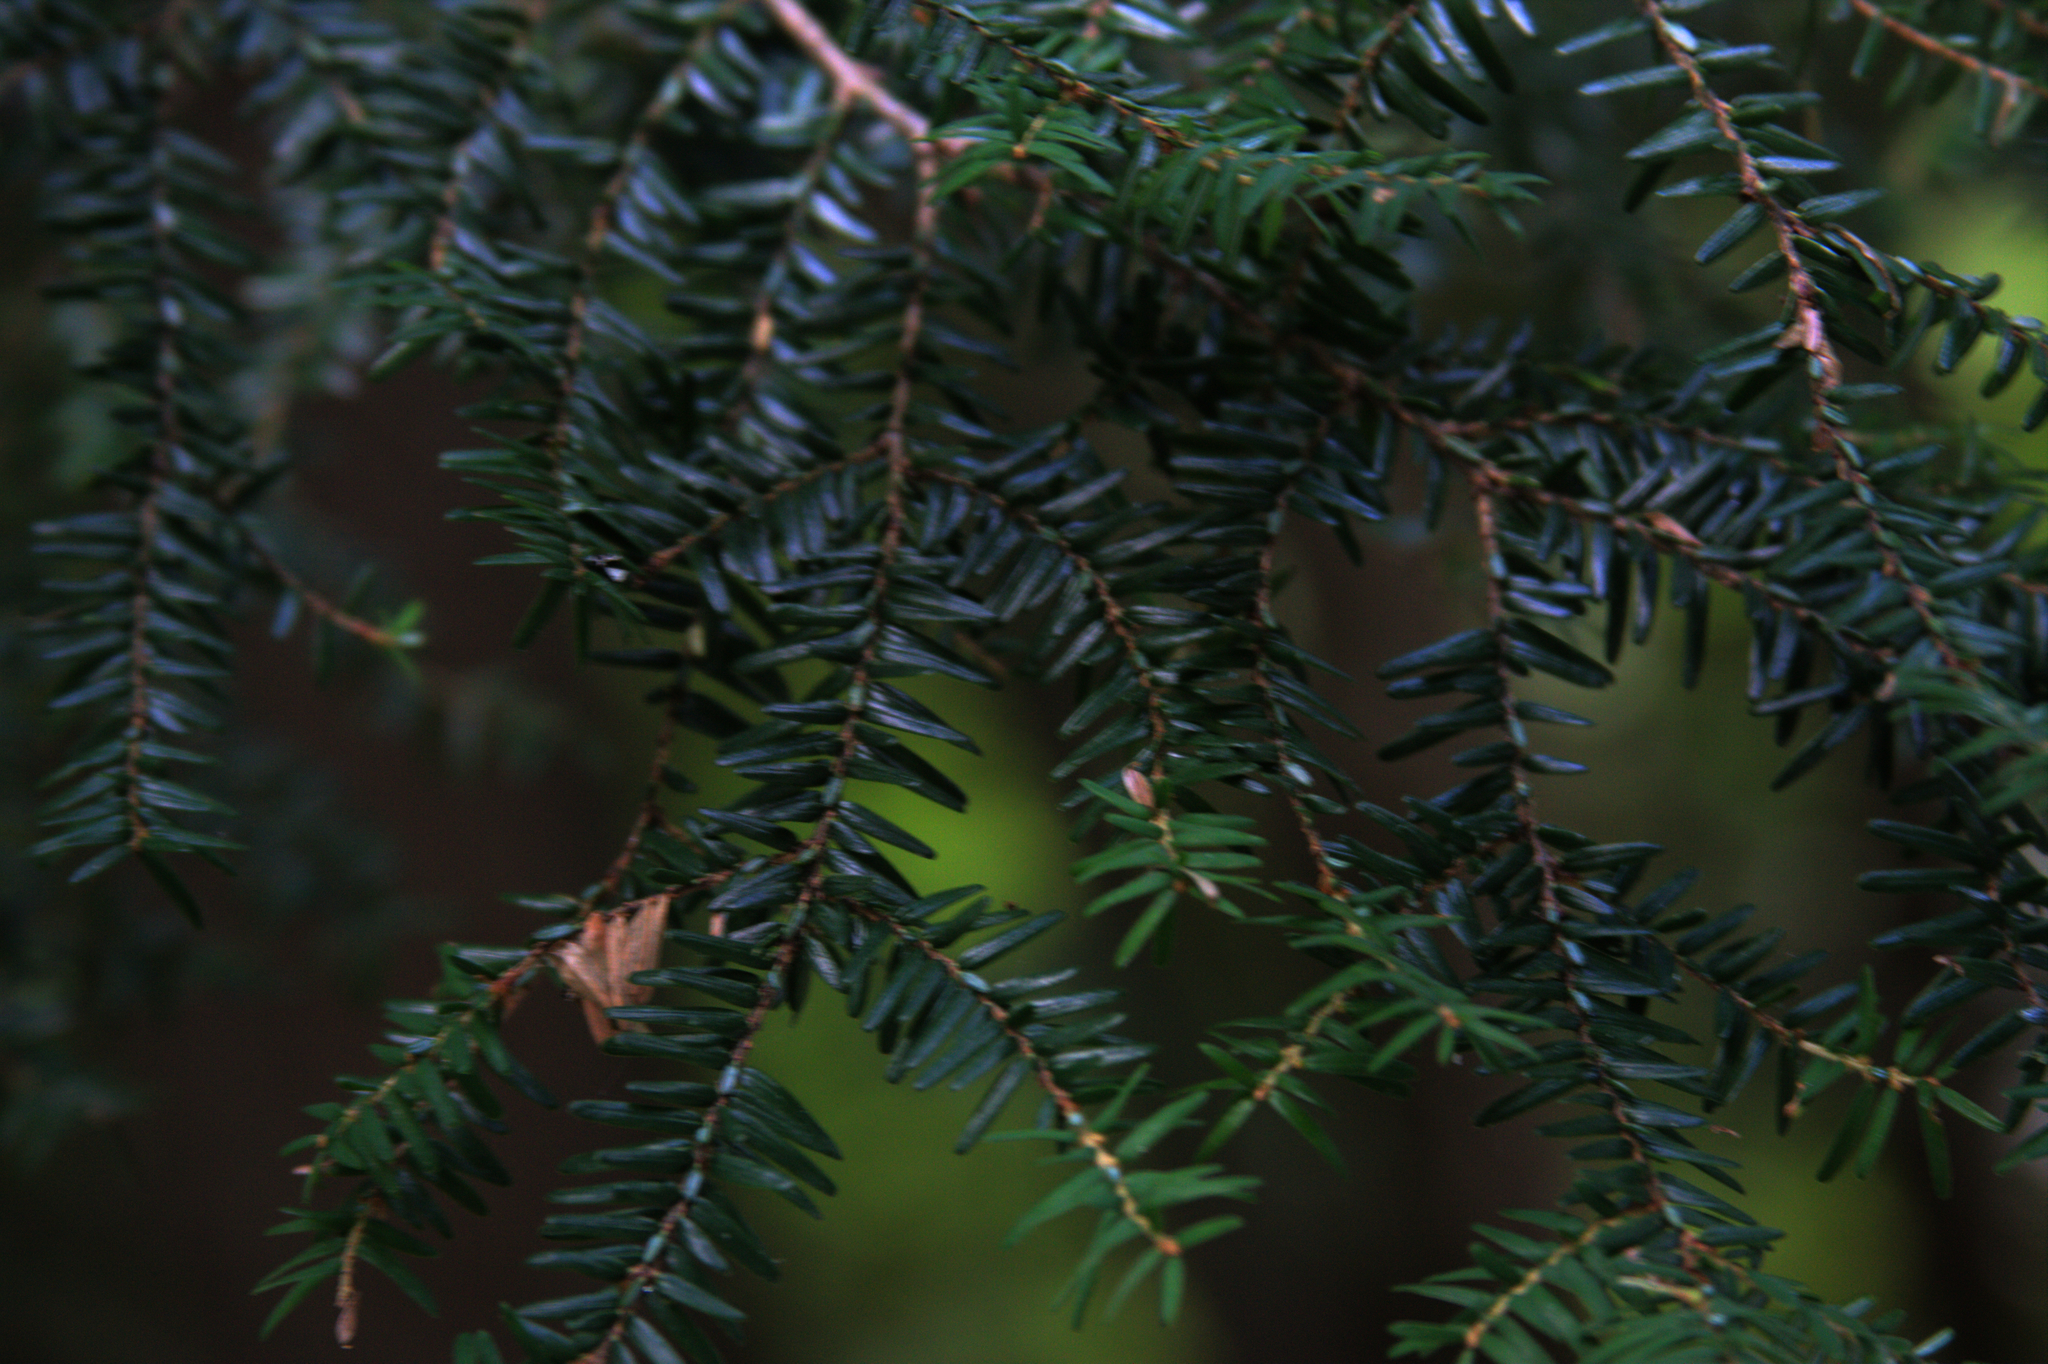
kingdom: Plantae
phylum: Tracheophyta
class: Pinopsida
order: Pinales
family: Pinaceae
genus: Tsuga
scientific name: Tsuga canadensis
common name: Eastern hemlock
